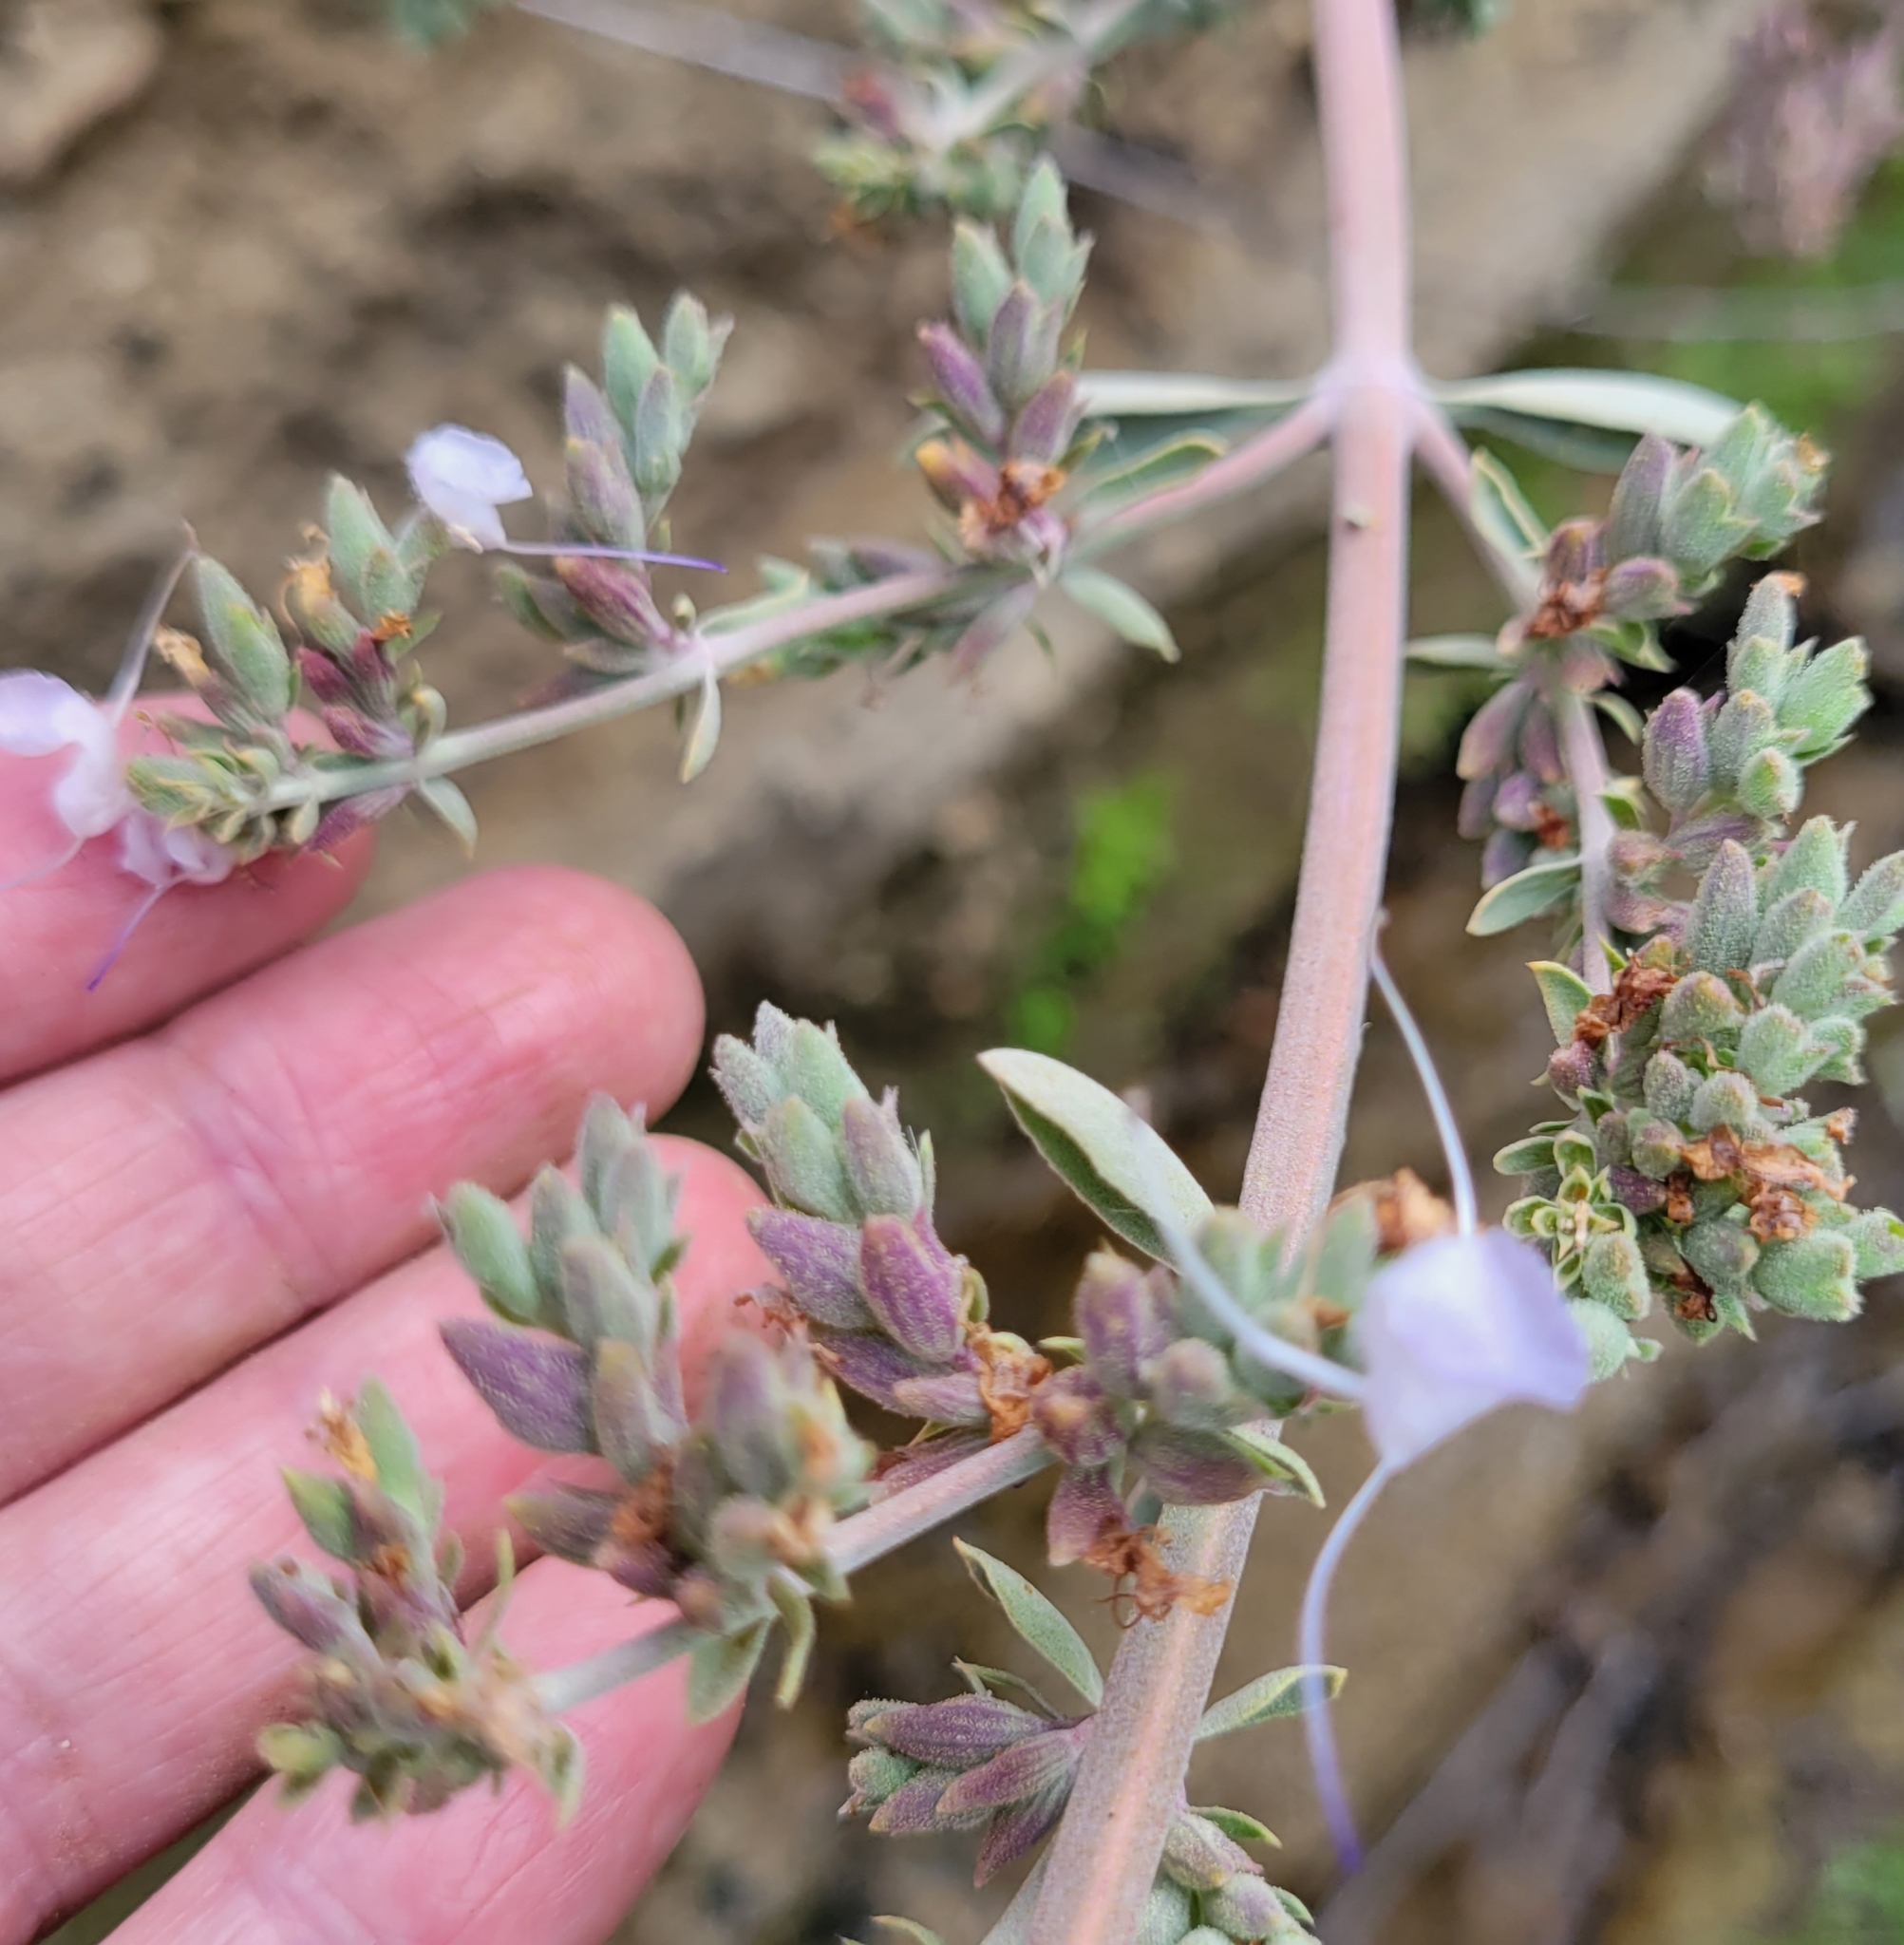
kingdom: Plantae
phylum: Tracheophyta
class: Magnoliopsida
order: Lamiales
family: Lamiaceae
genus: Salvia
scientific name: Salvia apiana
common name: White sage
